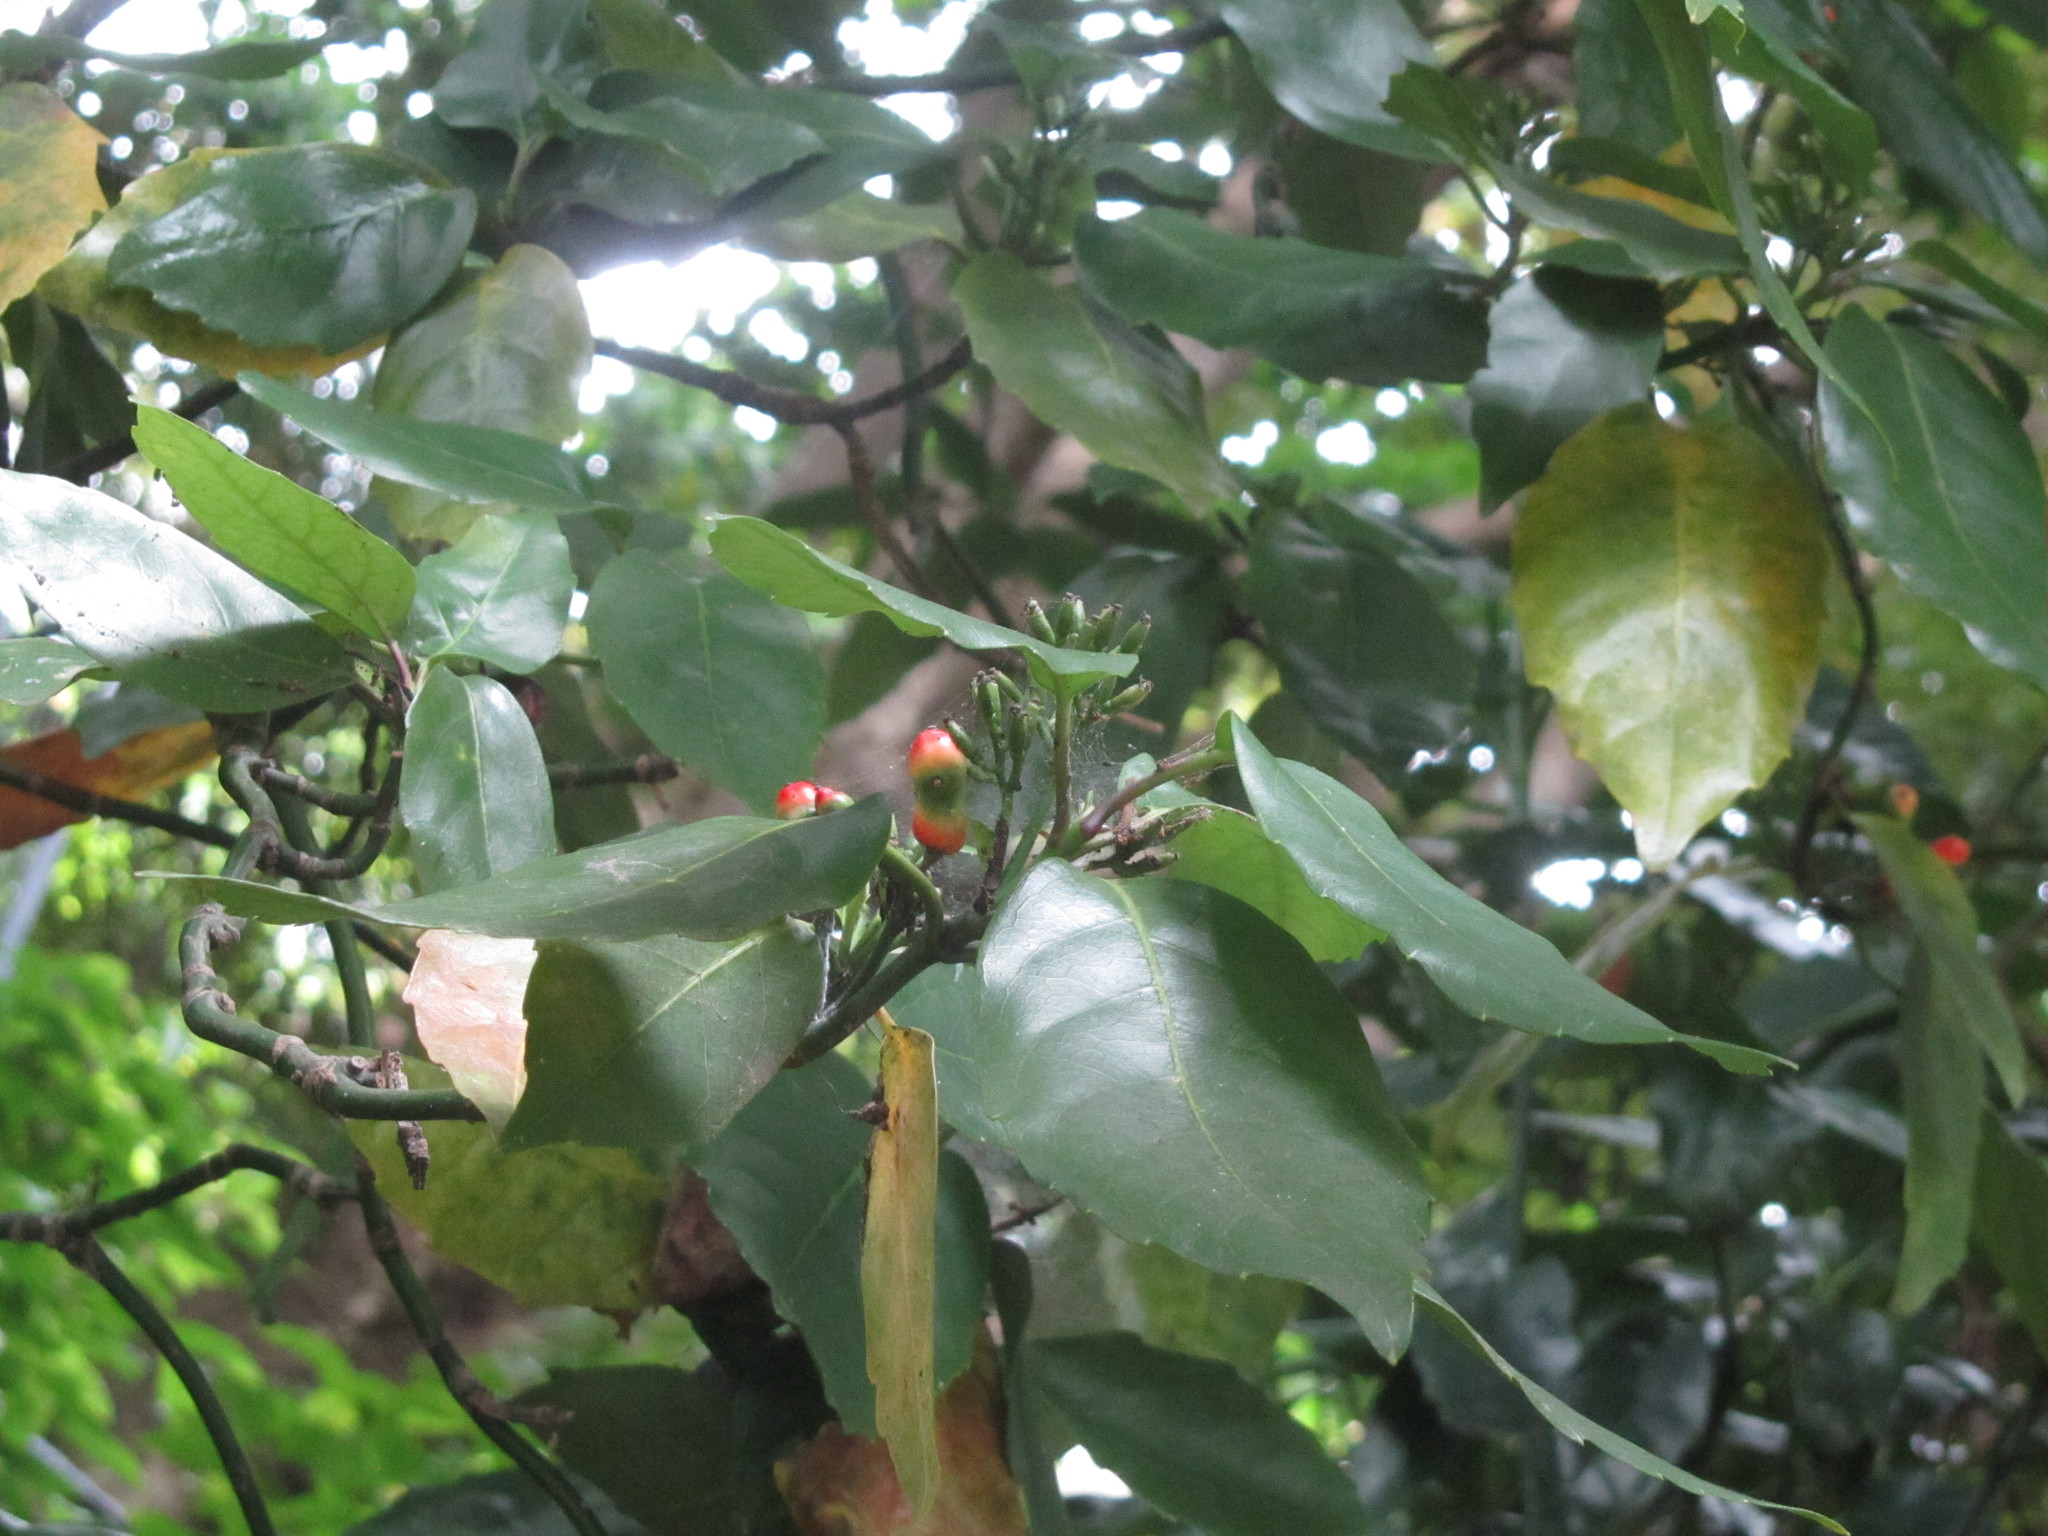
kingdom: Plantae
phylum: Tracheophyta
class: Magnoliopsida
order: Garryales
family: Garryaceae
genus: Aucuba
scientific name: Aucuba japonica
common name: Spotted-laurel
